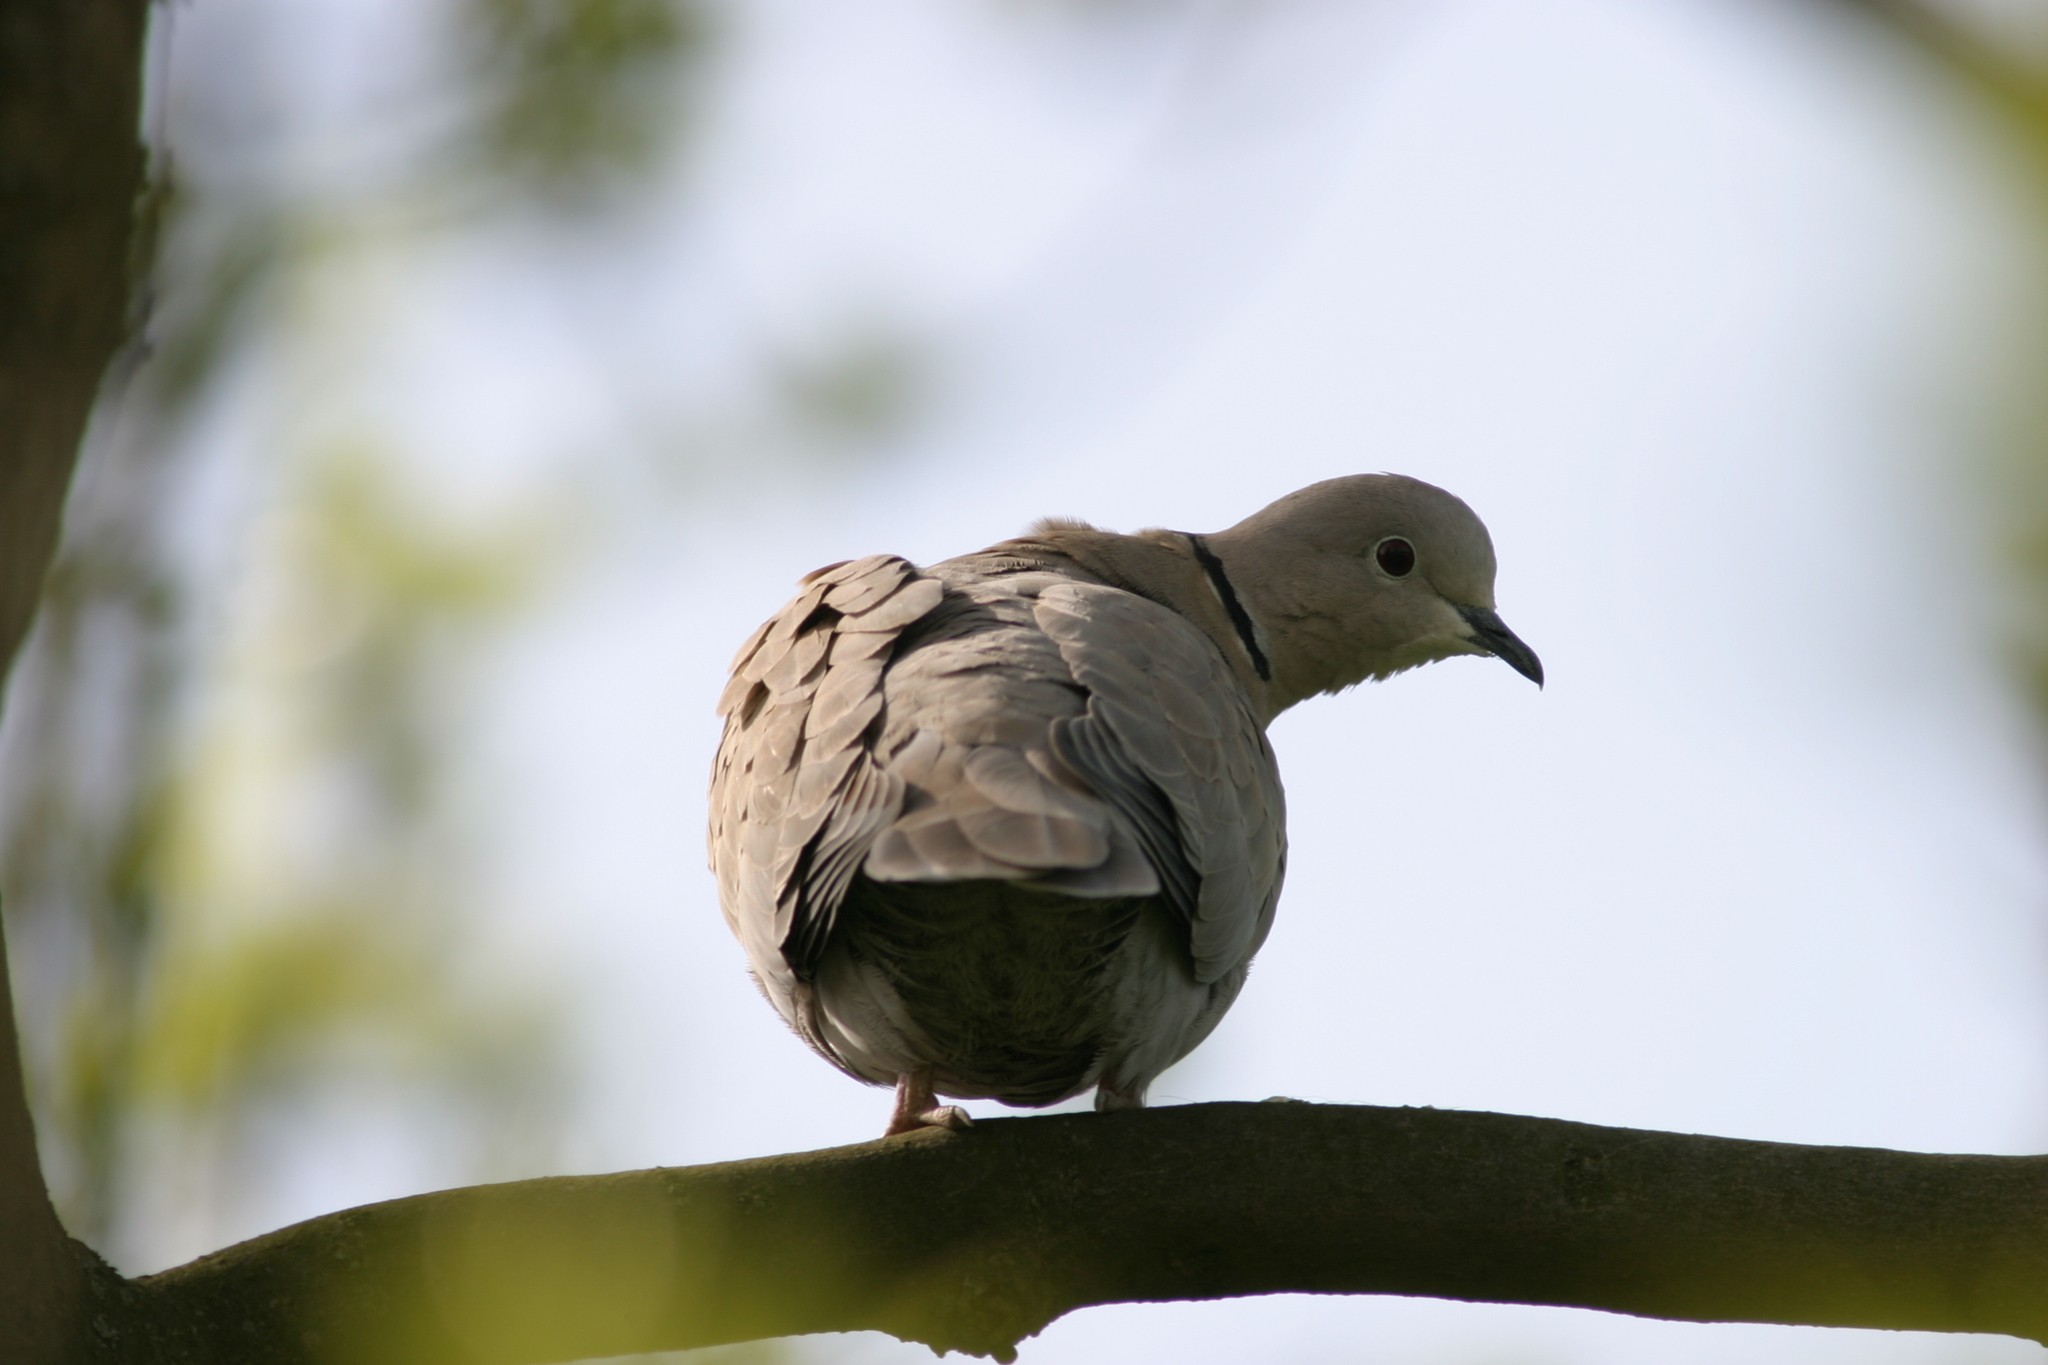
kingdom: Animalia
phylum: Chordata
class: Aves
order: Columbiformes
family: Columbidae
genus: Streptopelia
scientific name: Streptopelia decaocto
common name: Eurasian collared dove
